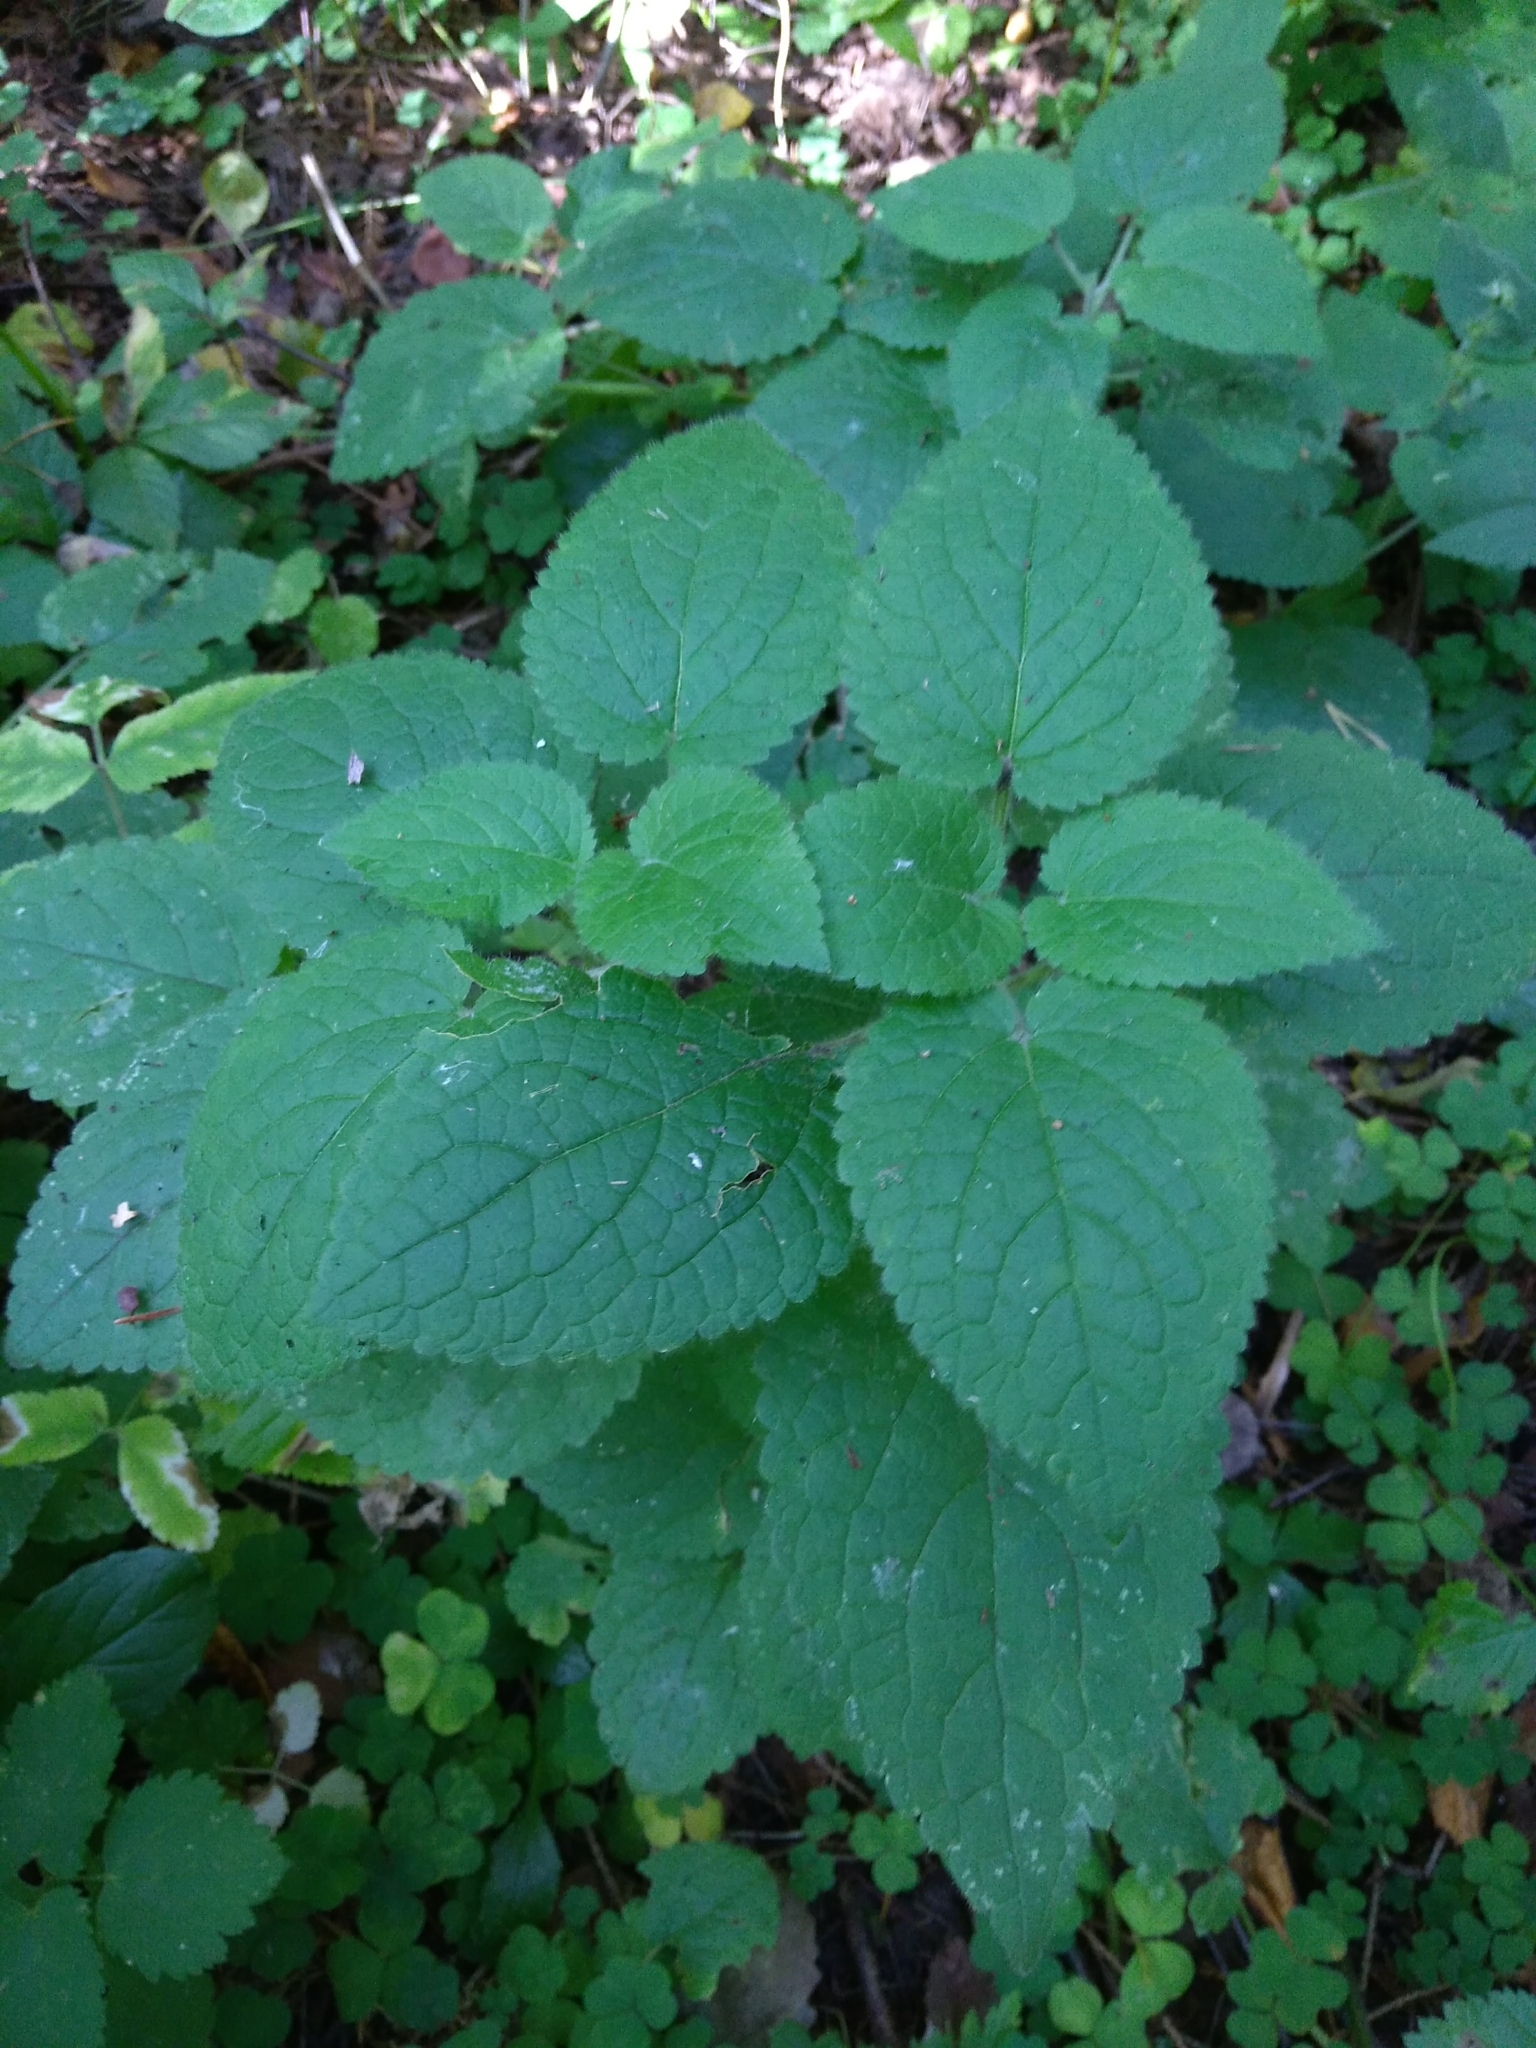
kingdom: Plantae
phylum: Tracheophyta
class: Magnoliopsida
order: Lamiales
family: Lamiaceae
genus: Stachys
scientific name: Stachys sylvatica
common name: Hedge woundwort
